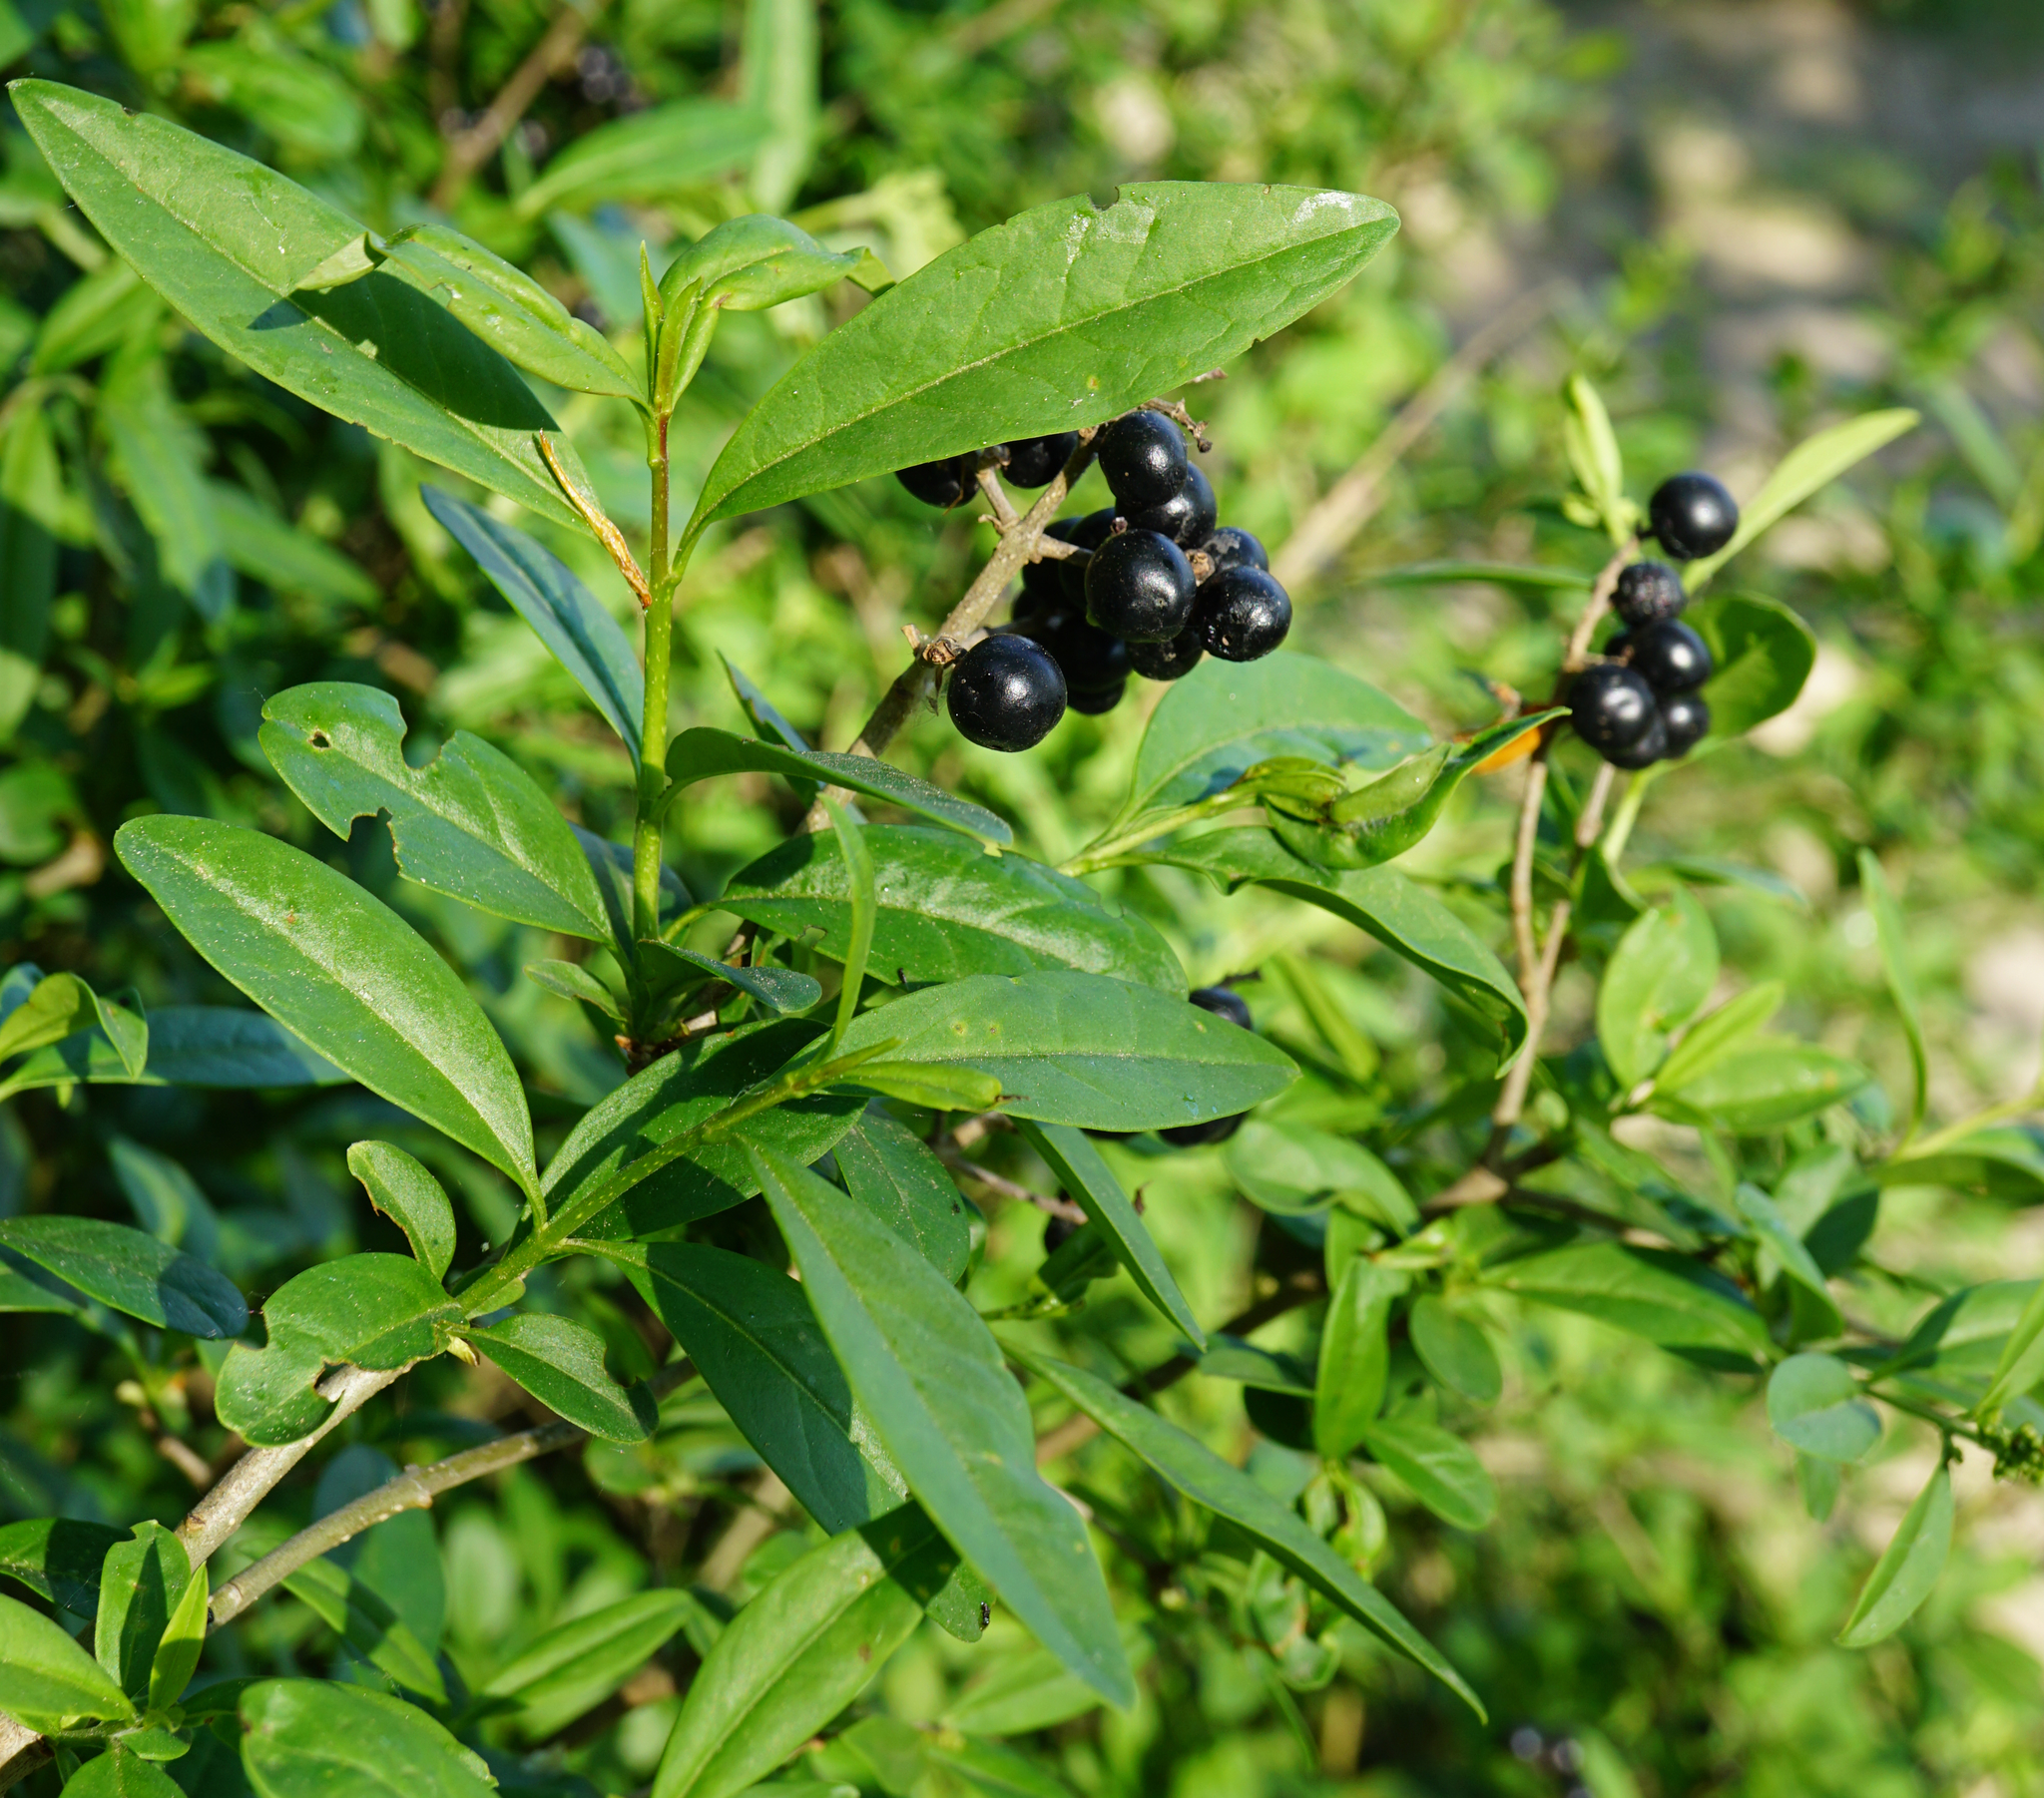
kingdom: Plantae
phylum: Tracheophyta
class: Magnoliopsida
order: Lamiales
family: Oleaceae
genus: Ligustrum
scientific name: Ligustrum vulgare
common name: Wild privet
